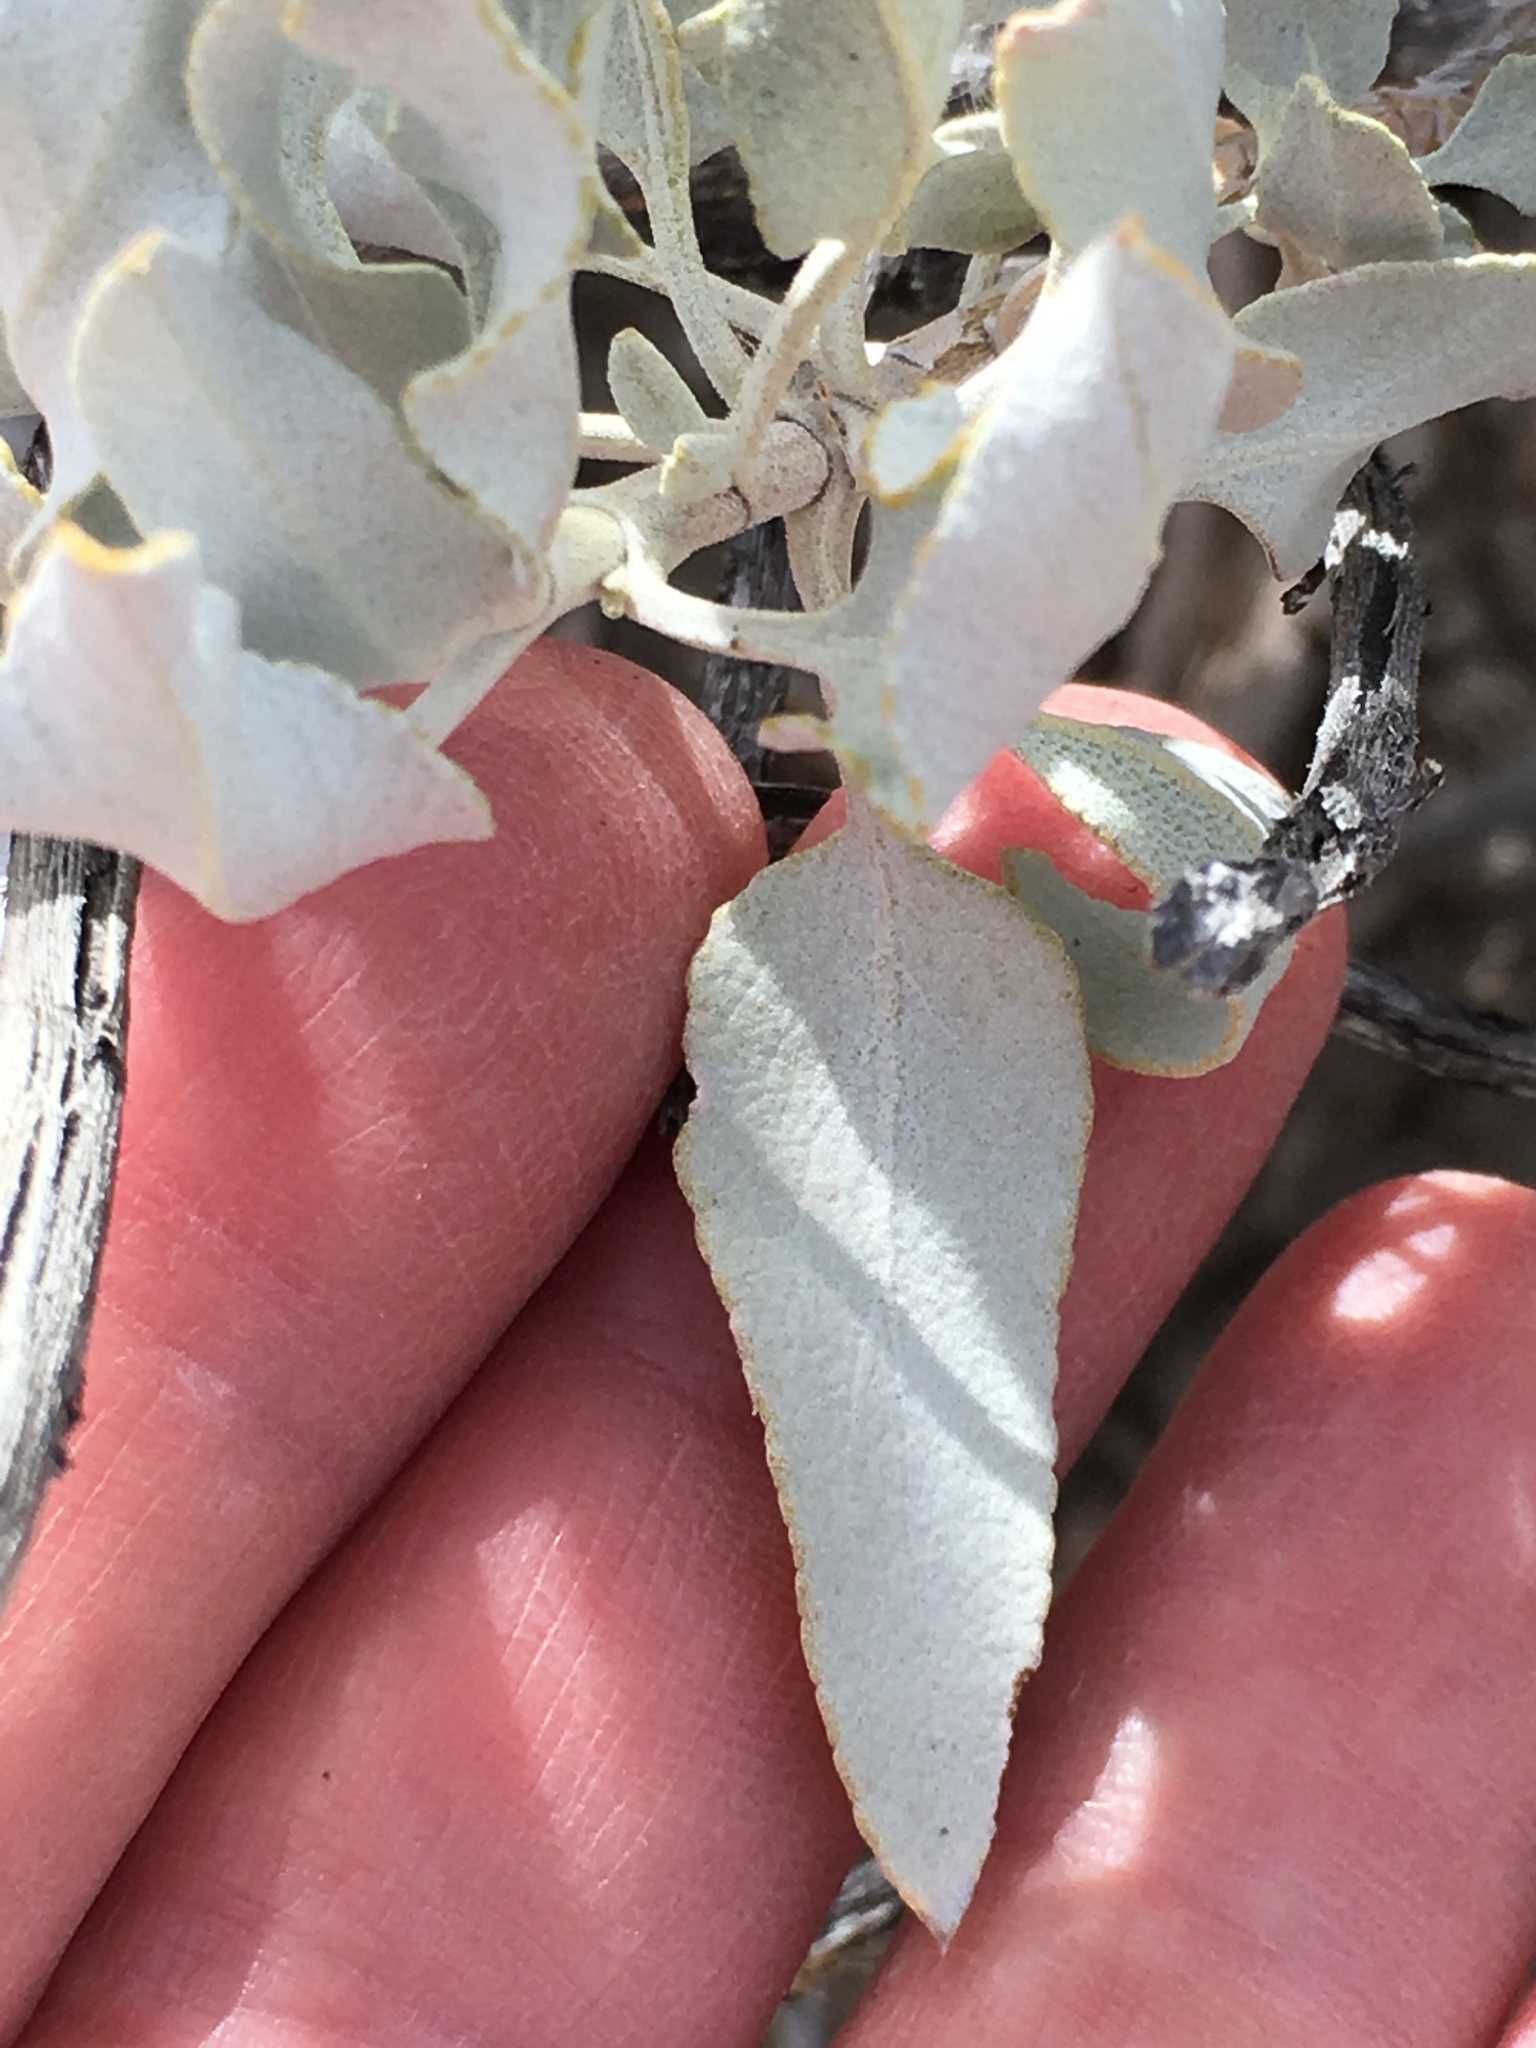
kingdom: Plantae
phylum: Tracheophyta
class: Magnoliopsida
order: Lamiales
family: Lamiaceae
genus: Salvia
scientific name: Salvia vaseyi
